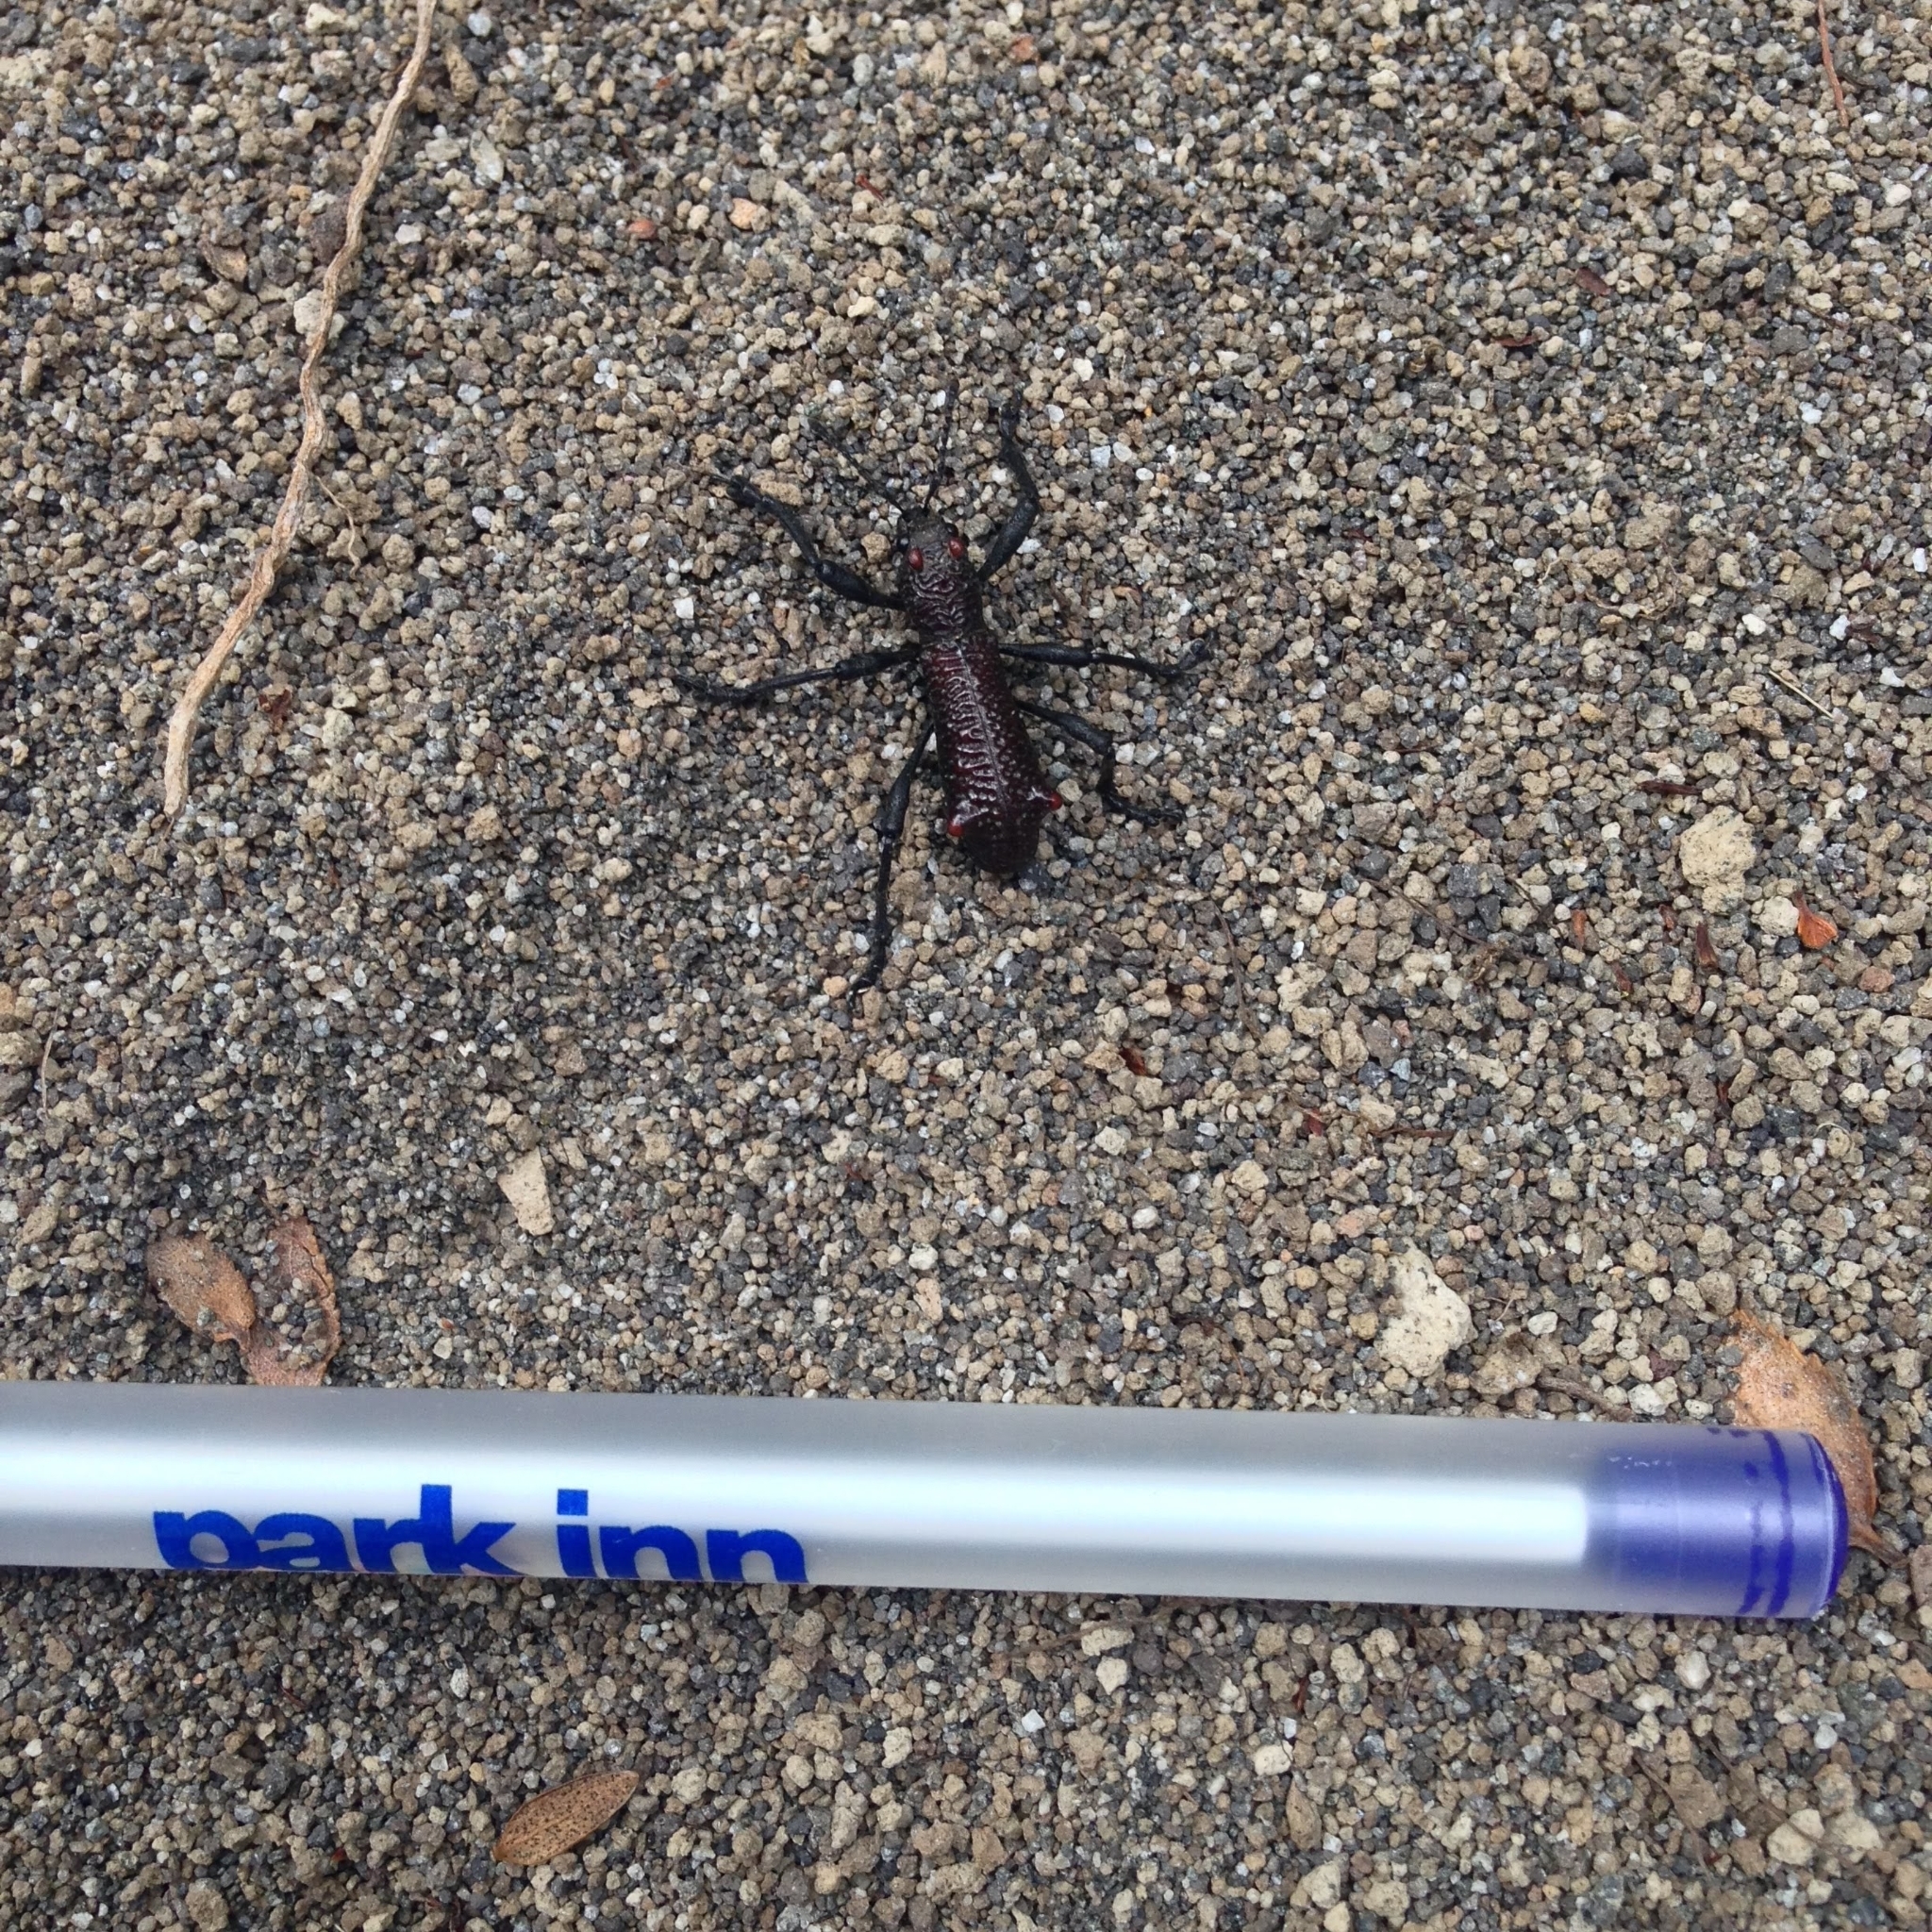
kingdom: Animalia
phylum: Arthropoda
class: Insecta
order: Coleoptera
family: Curculionidae
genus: Aegorhinus
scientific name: Aegorhinus vitulus
